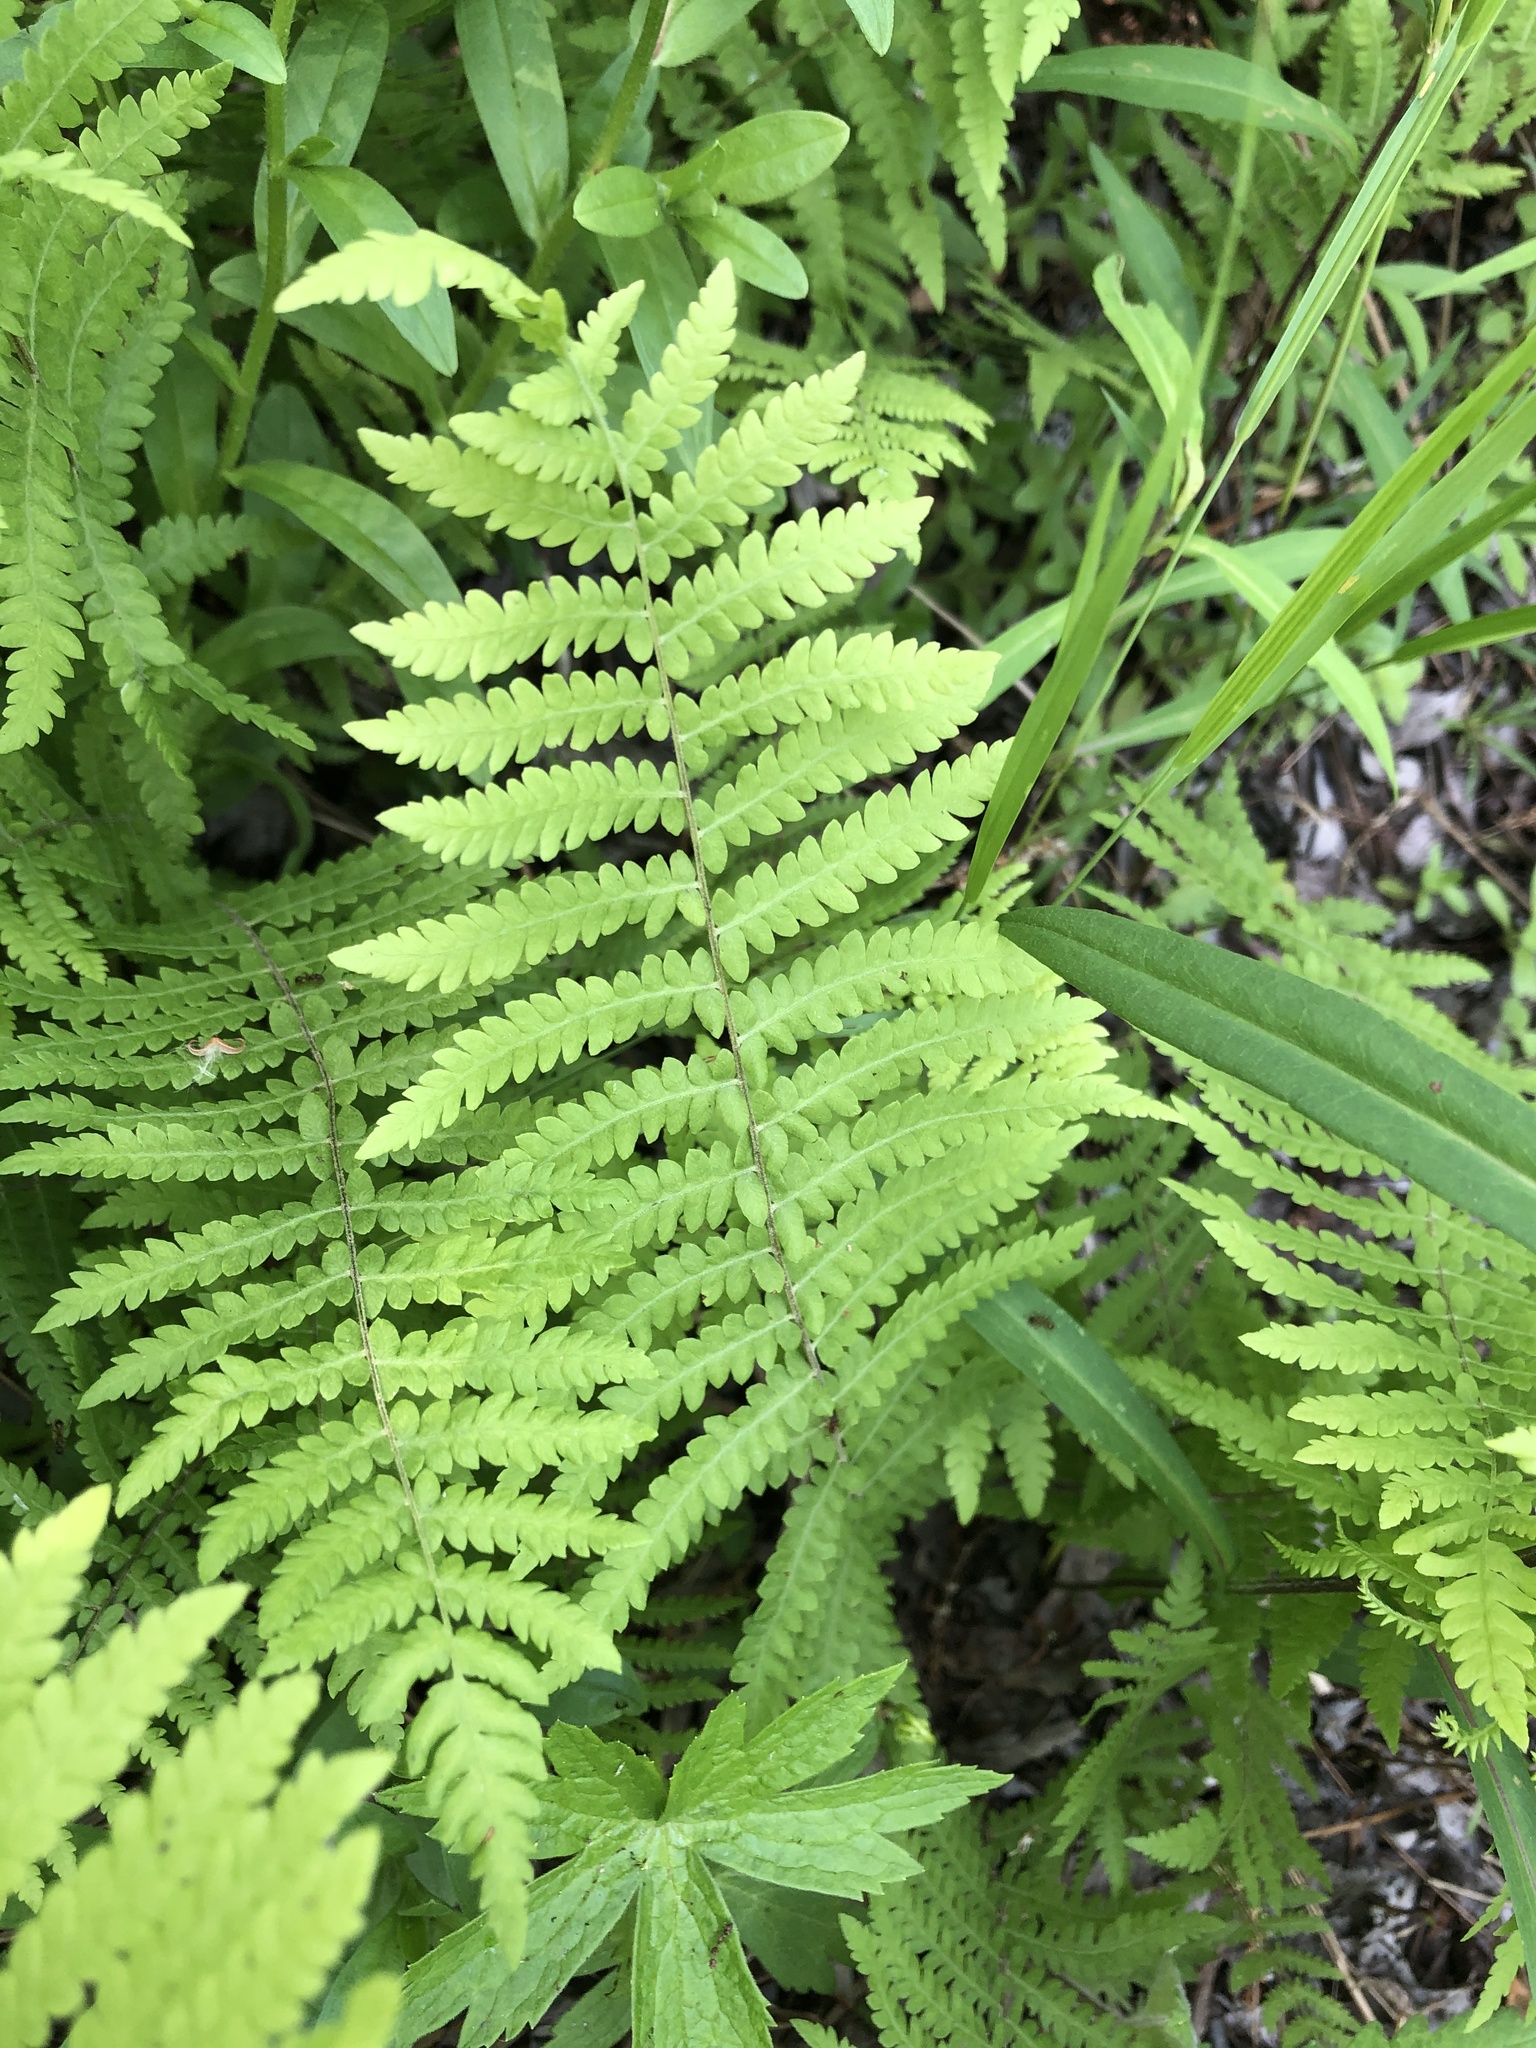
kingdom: Plantae
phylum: Tracheophyta
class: Polypodiopsida
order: Polypodiales
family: Thelypteridaceae
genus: Thelypteris
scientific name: Thelypteris palustris
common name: Marsh fern
